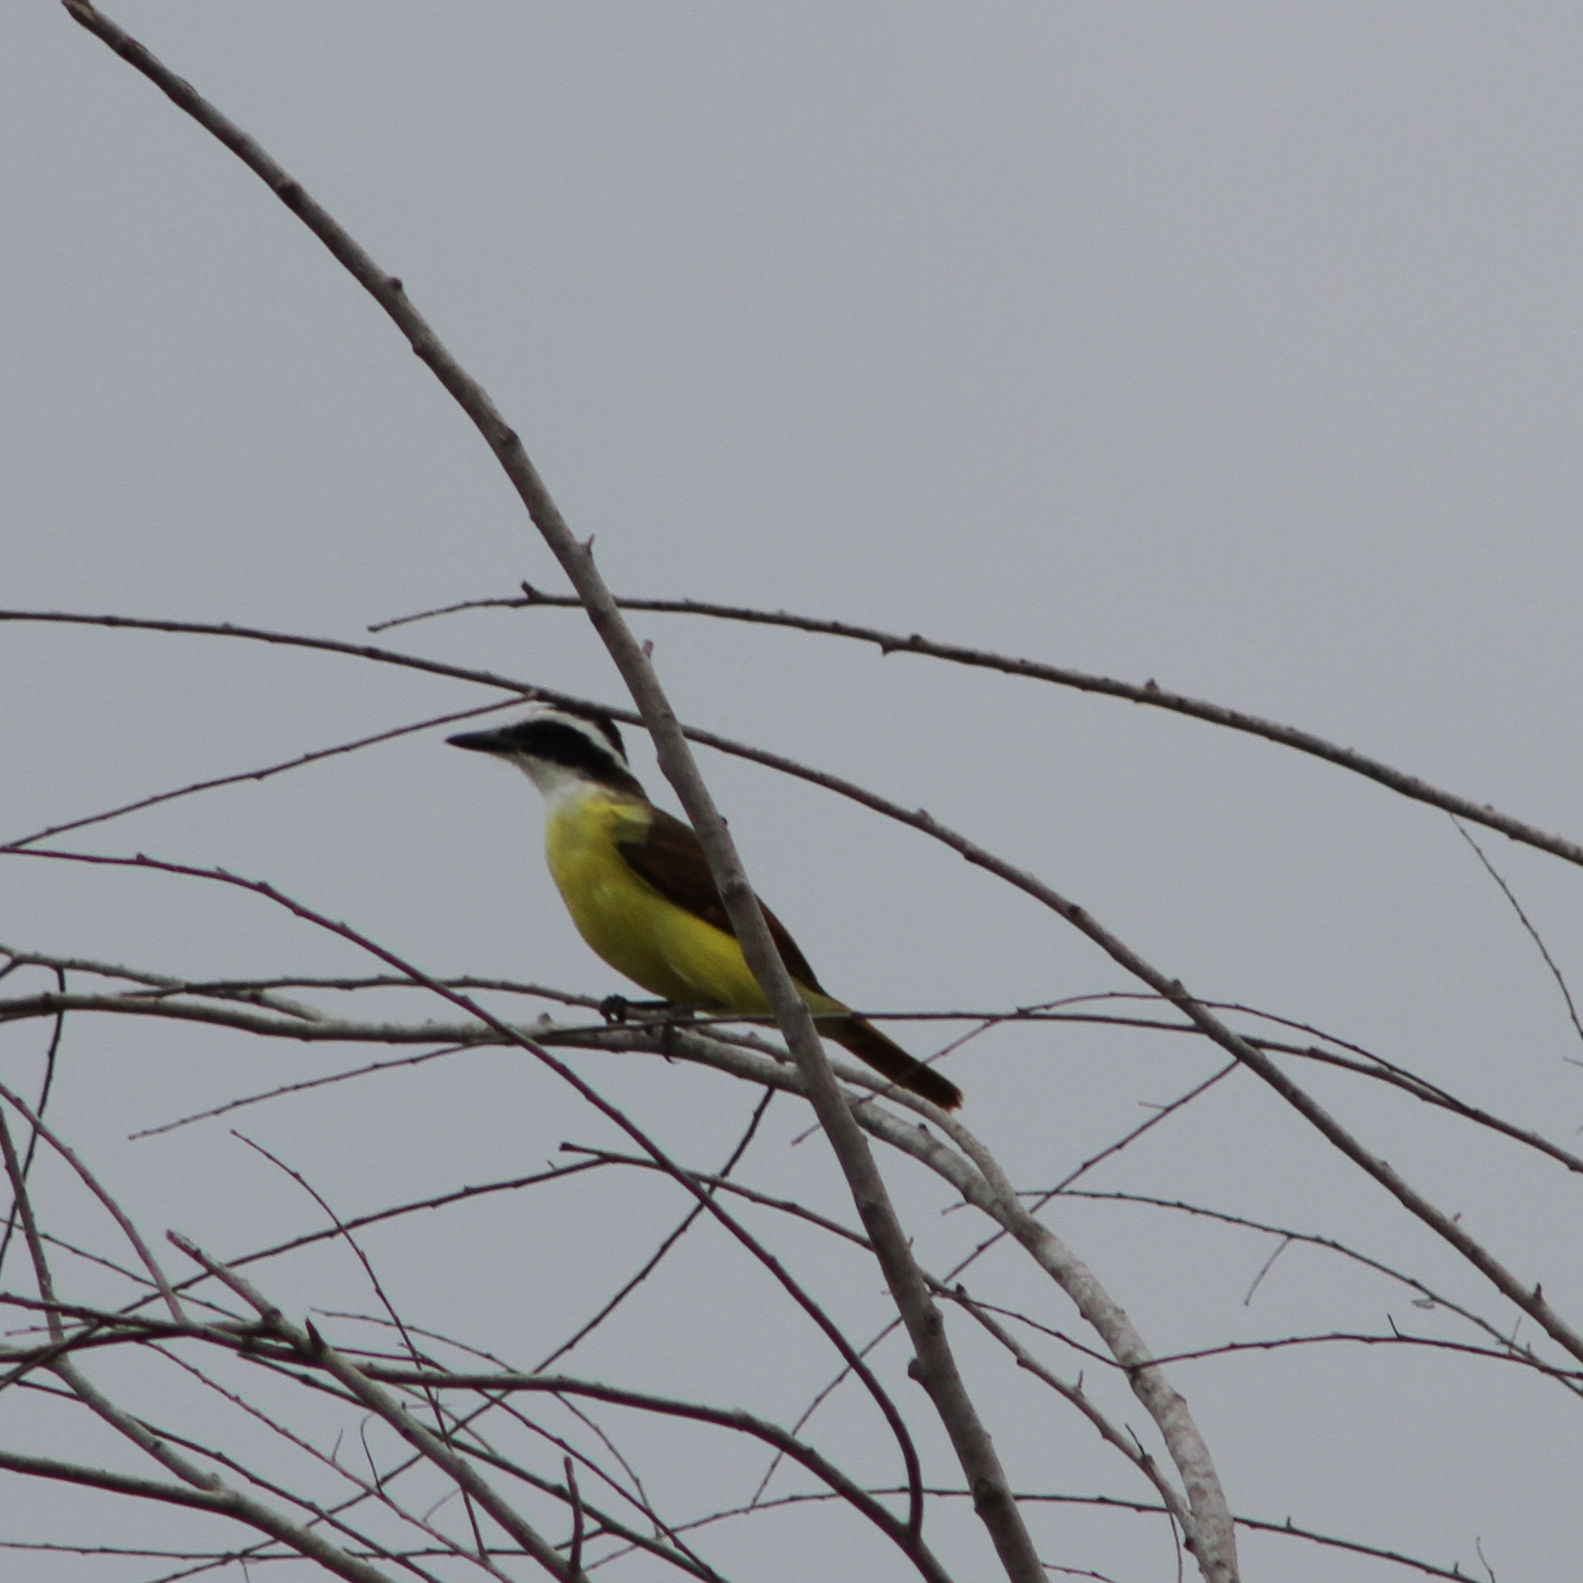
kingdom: Animalia
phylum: Chordata
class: Aves
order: Passeriformes
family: Tyrannidae
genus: Pitangus
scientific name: Pitangus sulphuratus
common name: Great kiskadee
